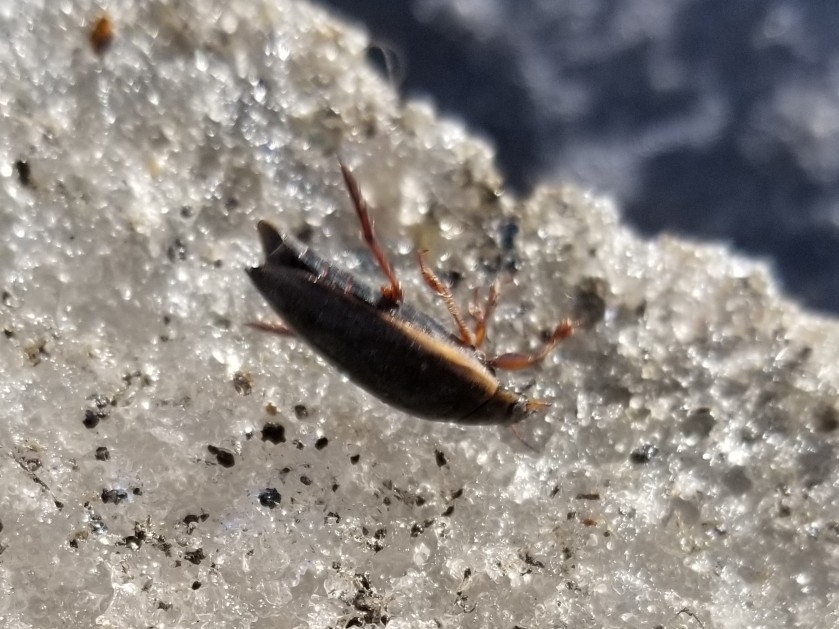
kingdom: Animalia
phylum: Arthropoda
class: Insecta
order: Coleoptera
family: Dytiscidae
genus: Colymbetes
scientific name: Colymbetes
